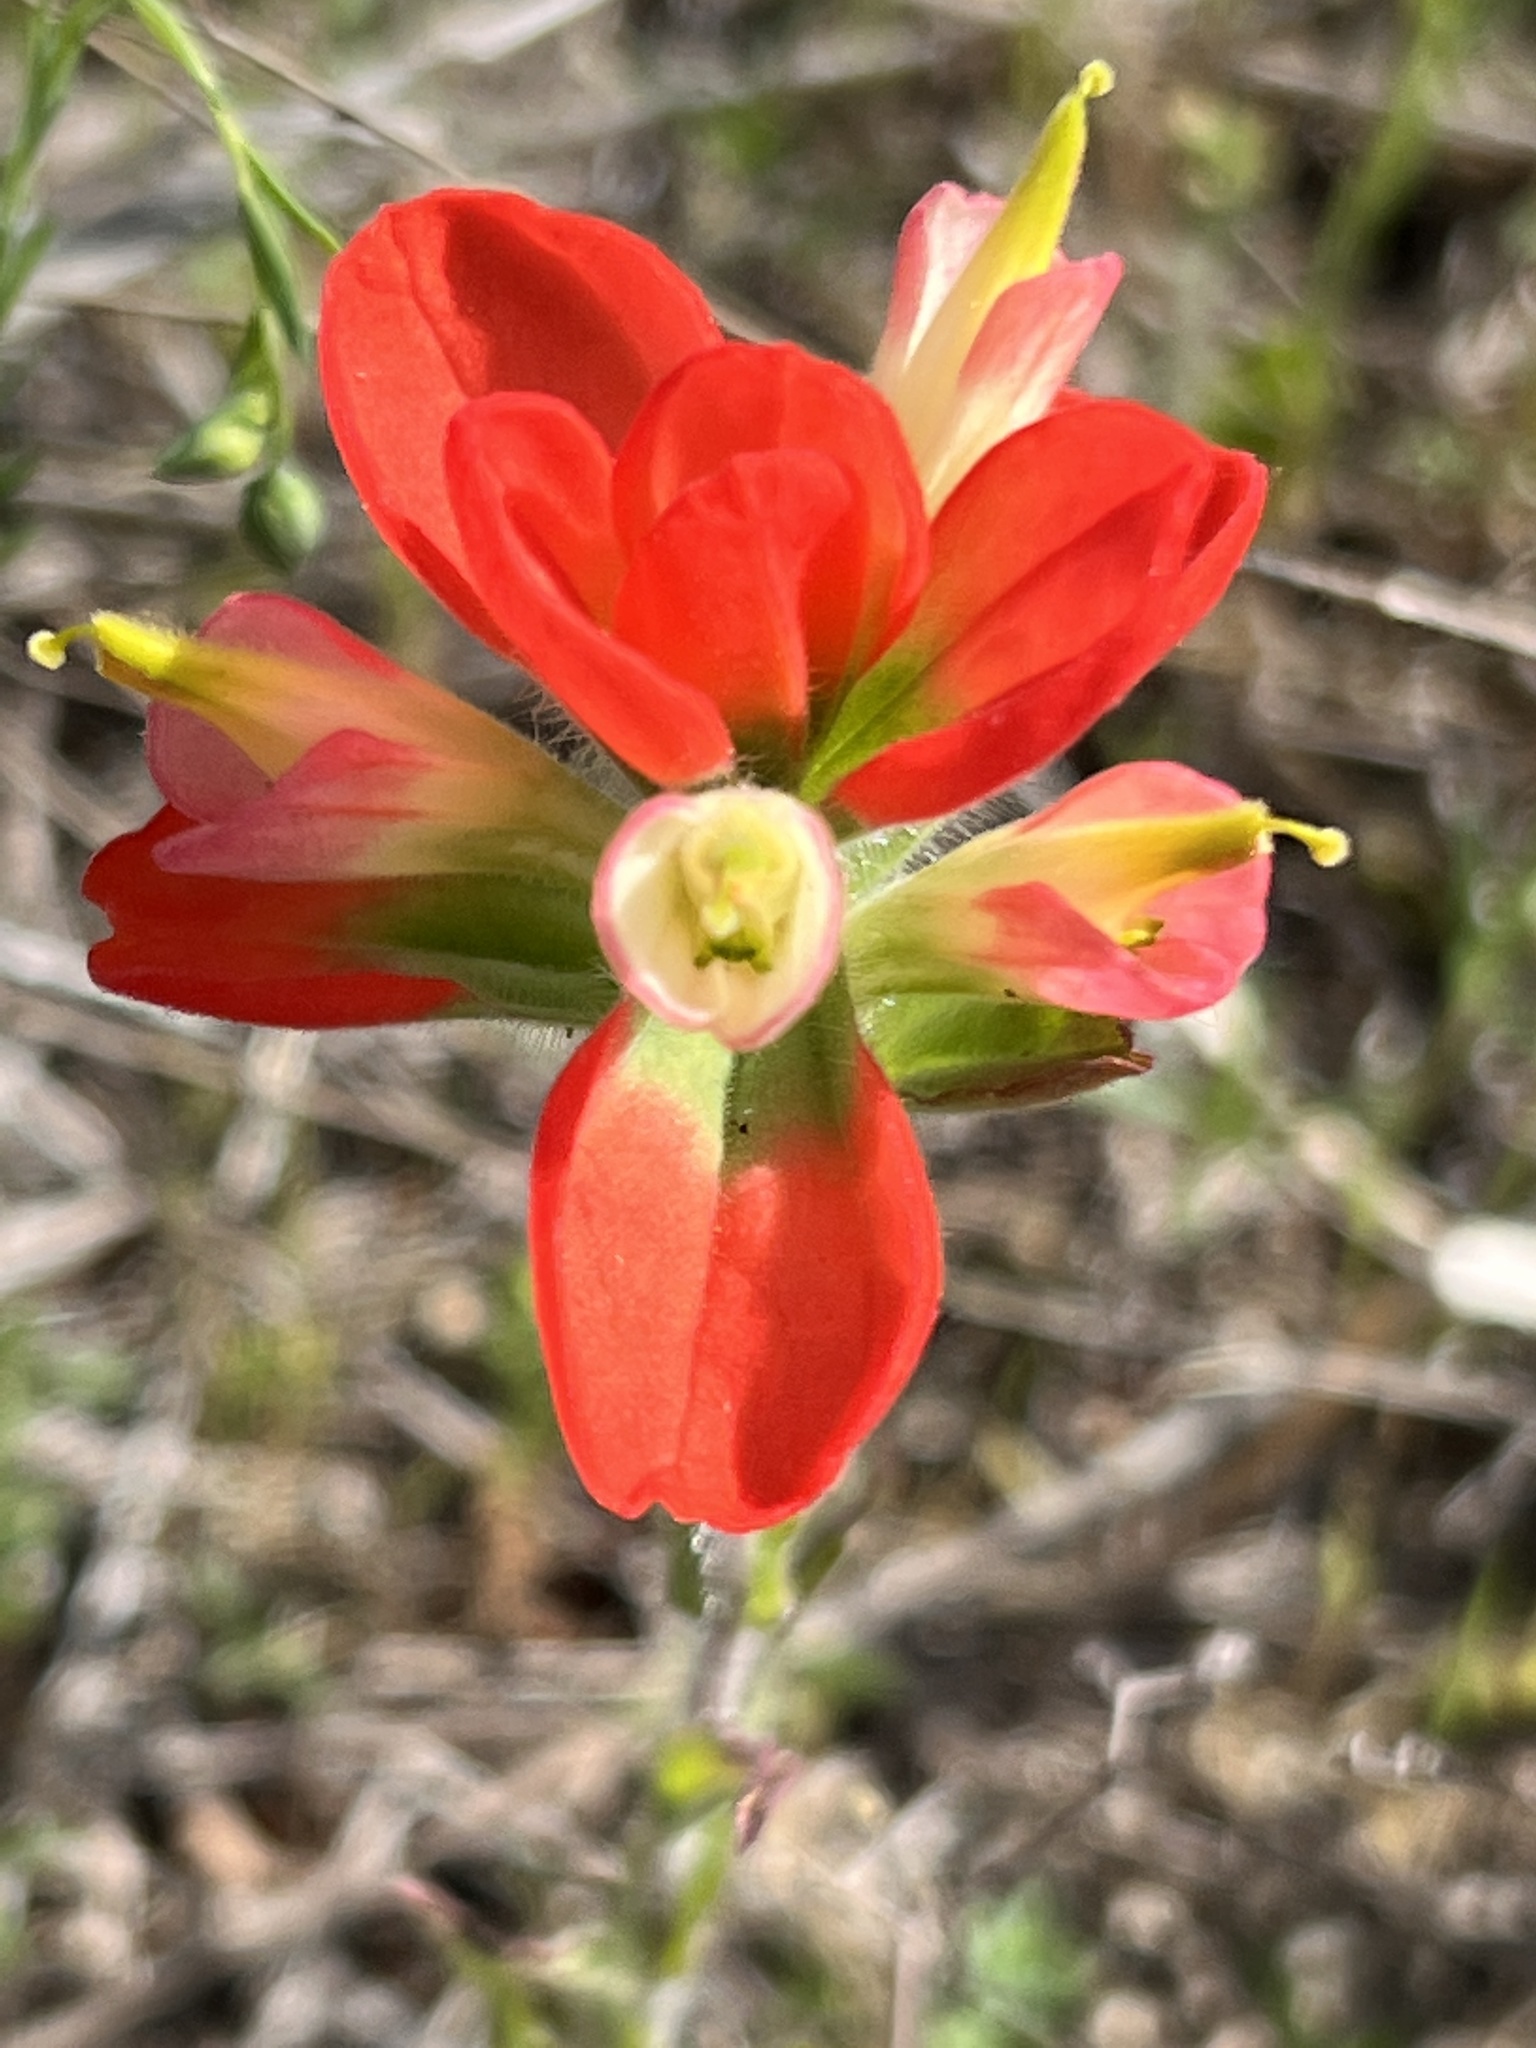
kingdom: Plantae
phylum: Tracheophyta
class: Magnoliopsida
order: Lamiales
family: Orobanchaceae
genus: Castilleja
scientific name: Castilleja indivisa
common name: Texas paintbrush
